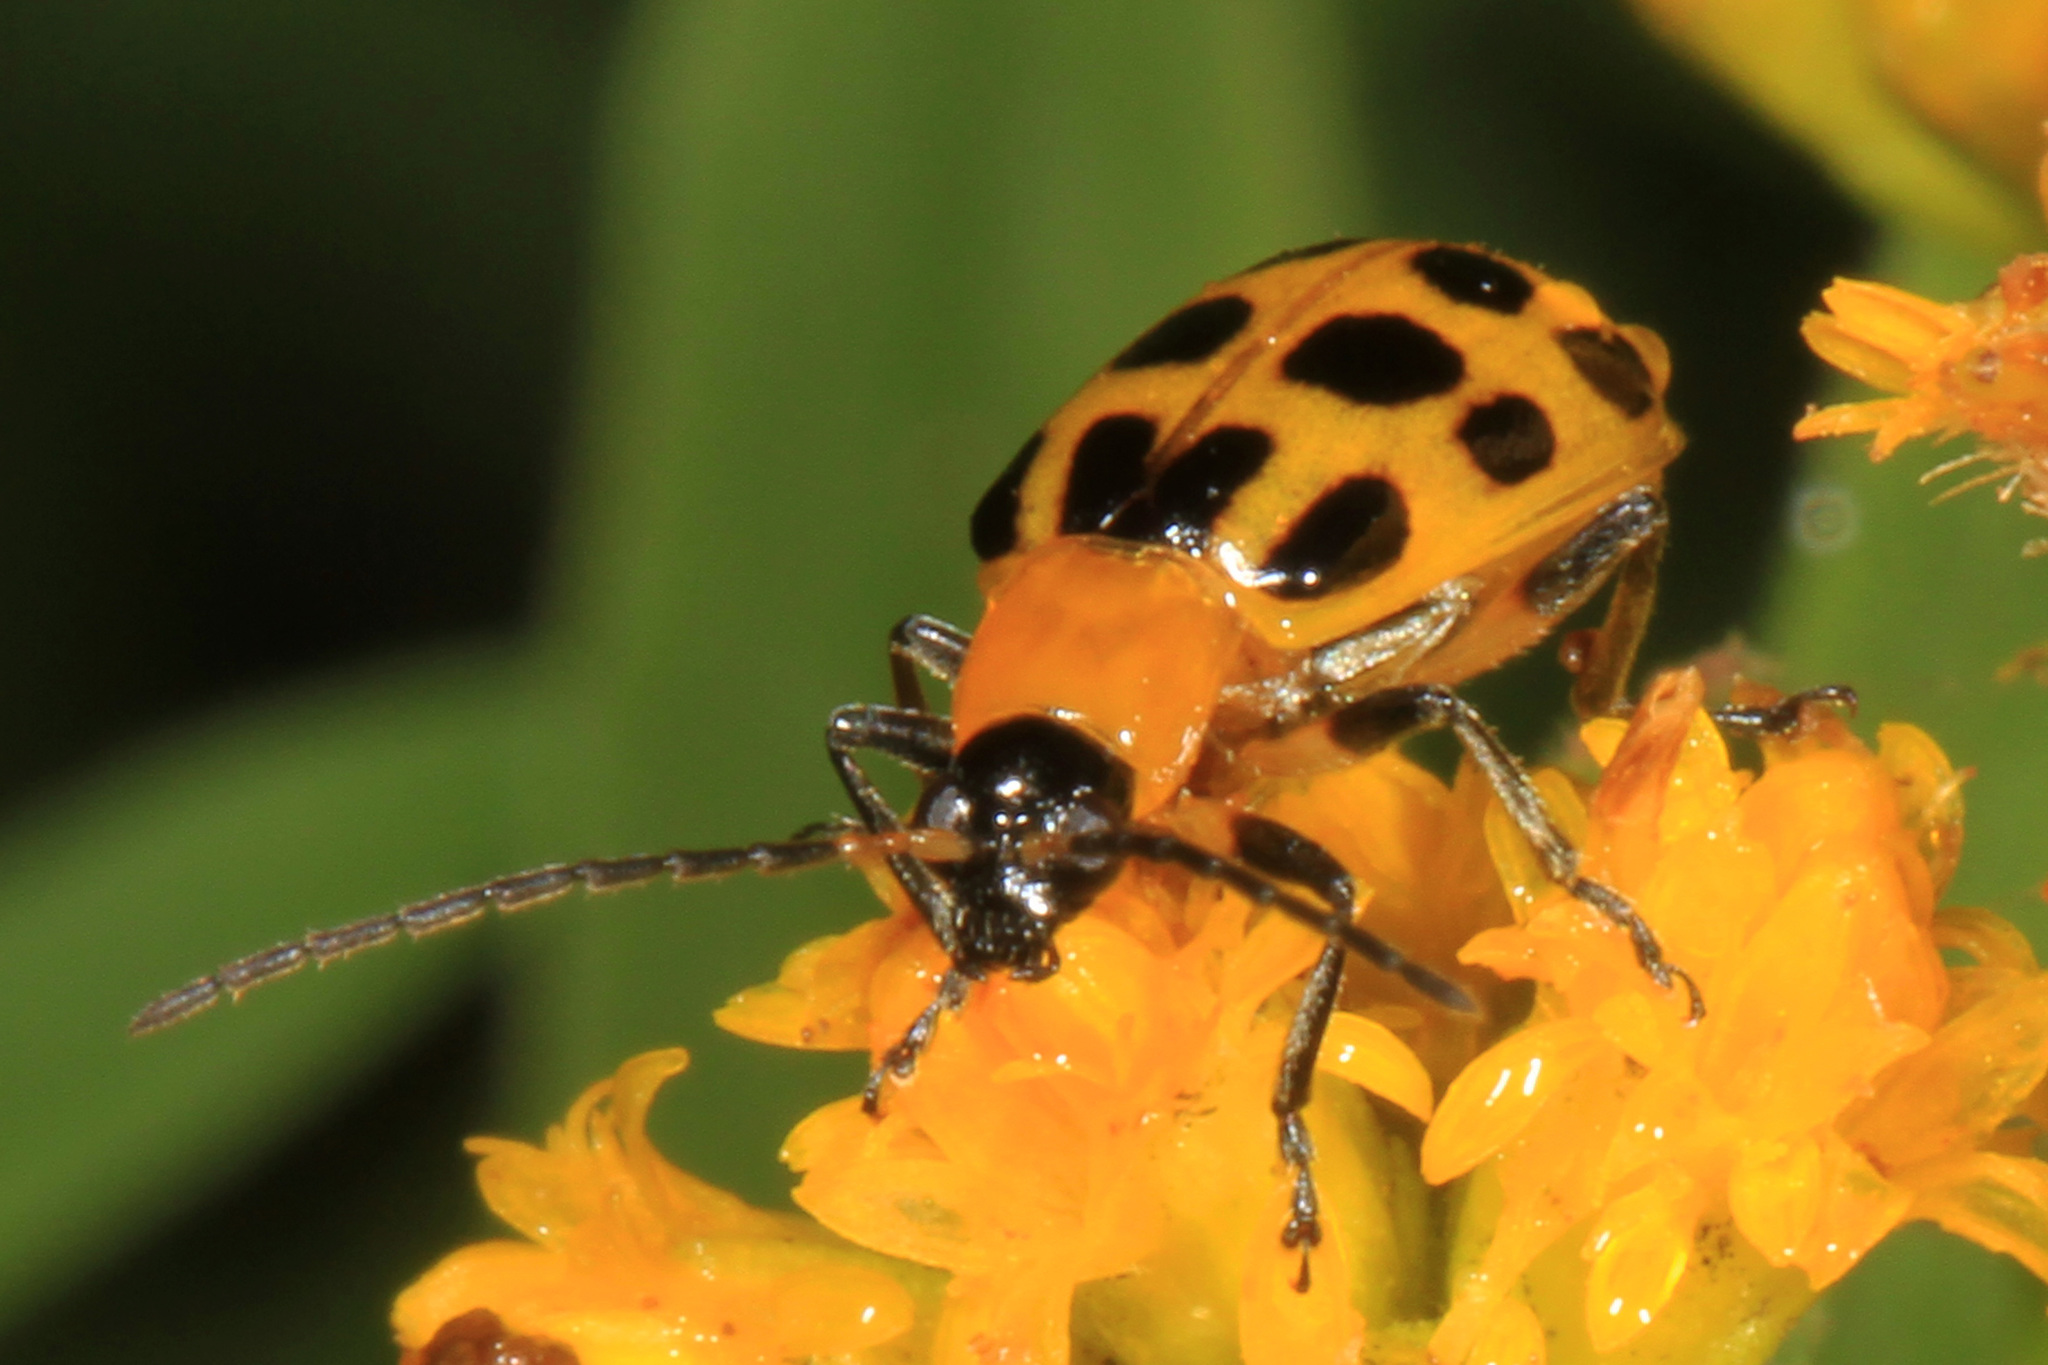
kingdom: Animalia
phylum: Arthropoda
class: Insecta
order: Coleoptera
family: Chrysomelidae
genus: Diabrotica
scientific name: Diabrotica undecimpunctata
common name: Spotted cucumber beetle
